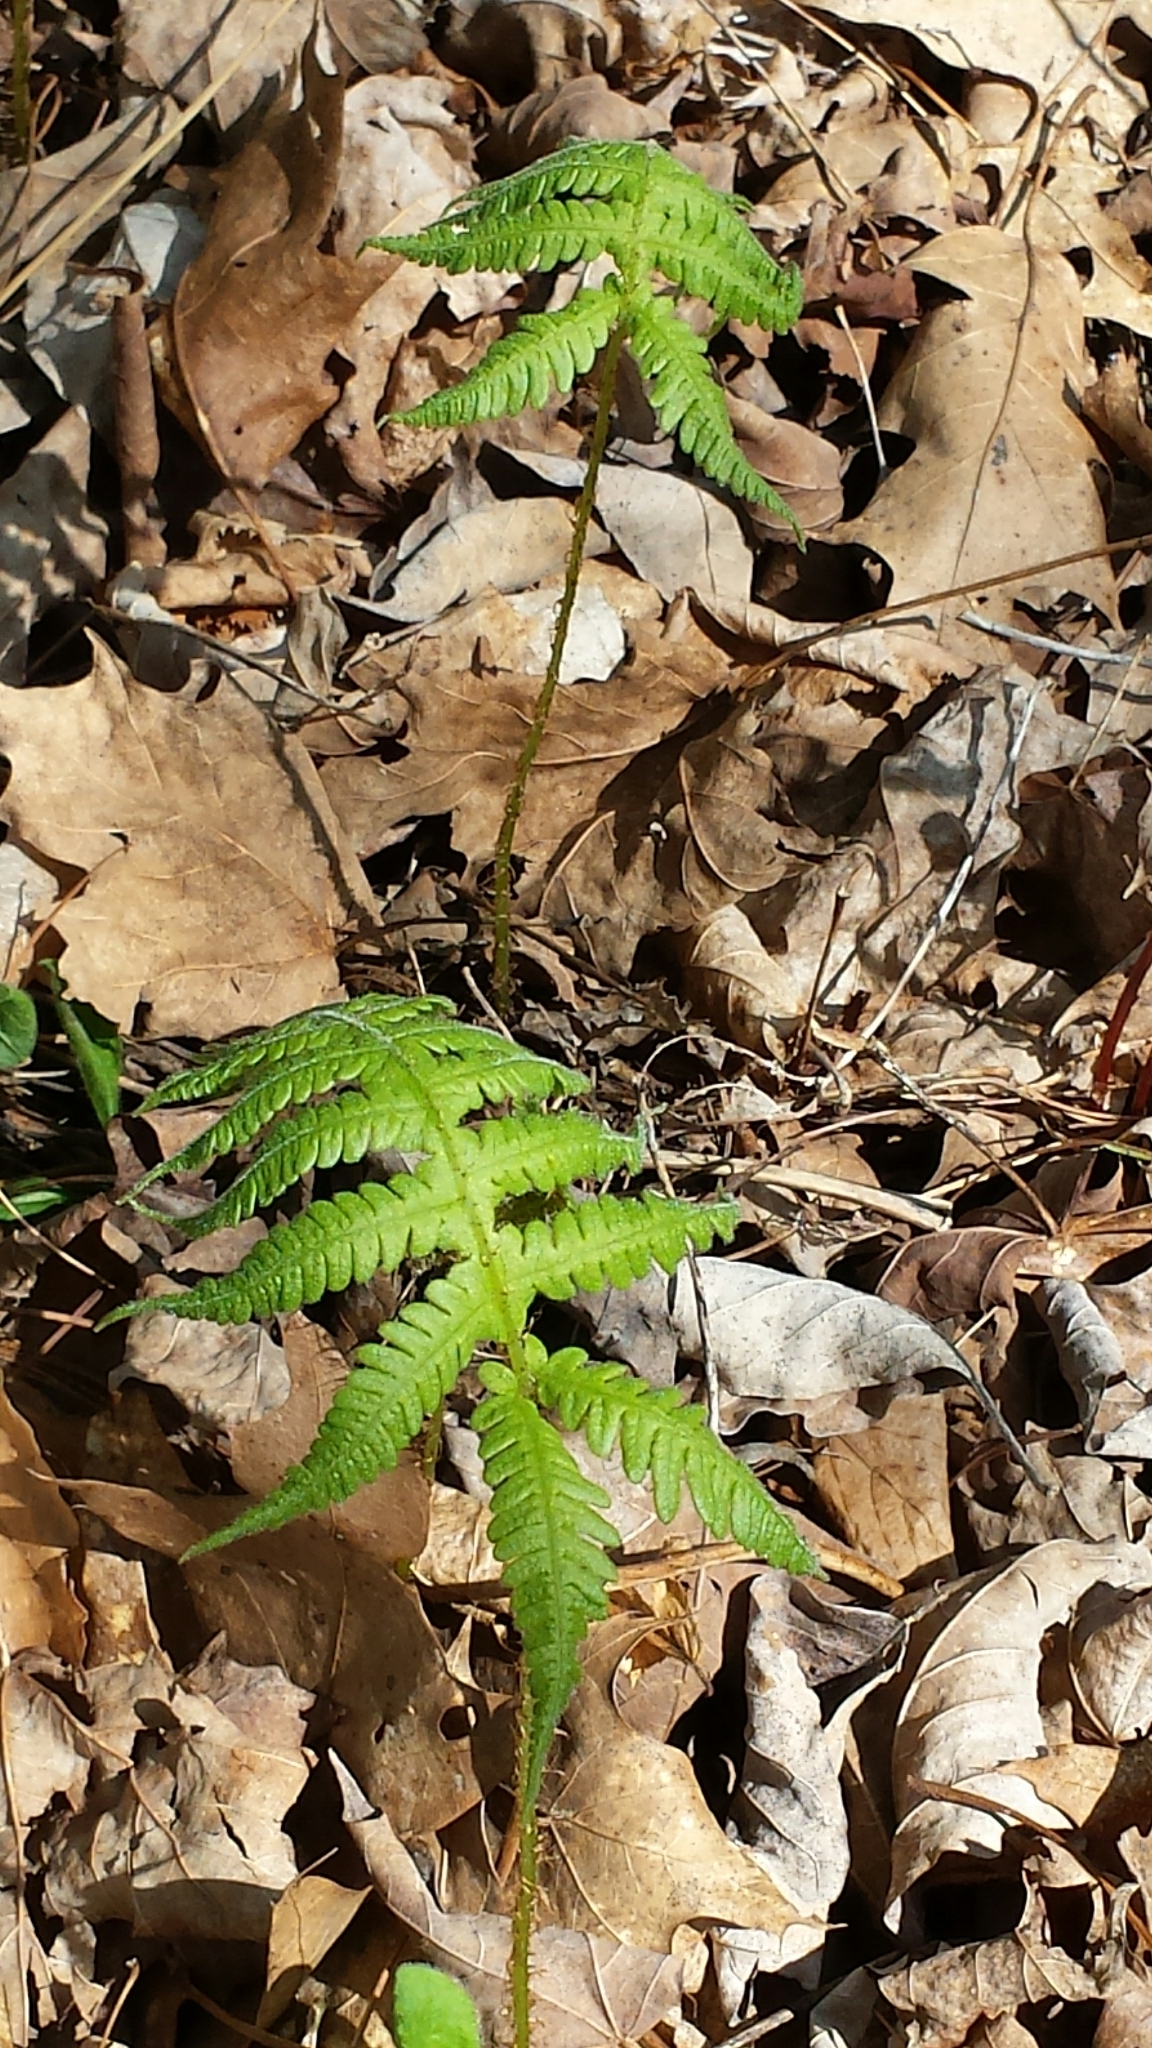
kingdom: Plantae
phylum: Tracheophyta
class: Polypodiopsida
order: Polypodiales
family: Thelypteridaceae
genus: Phegopteris
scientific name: Phegopteris connectilis
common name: Beech fern
